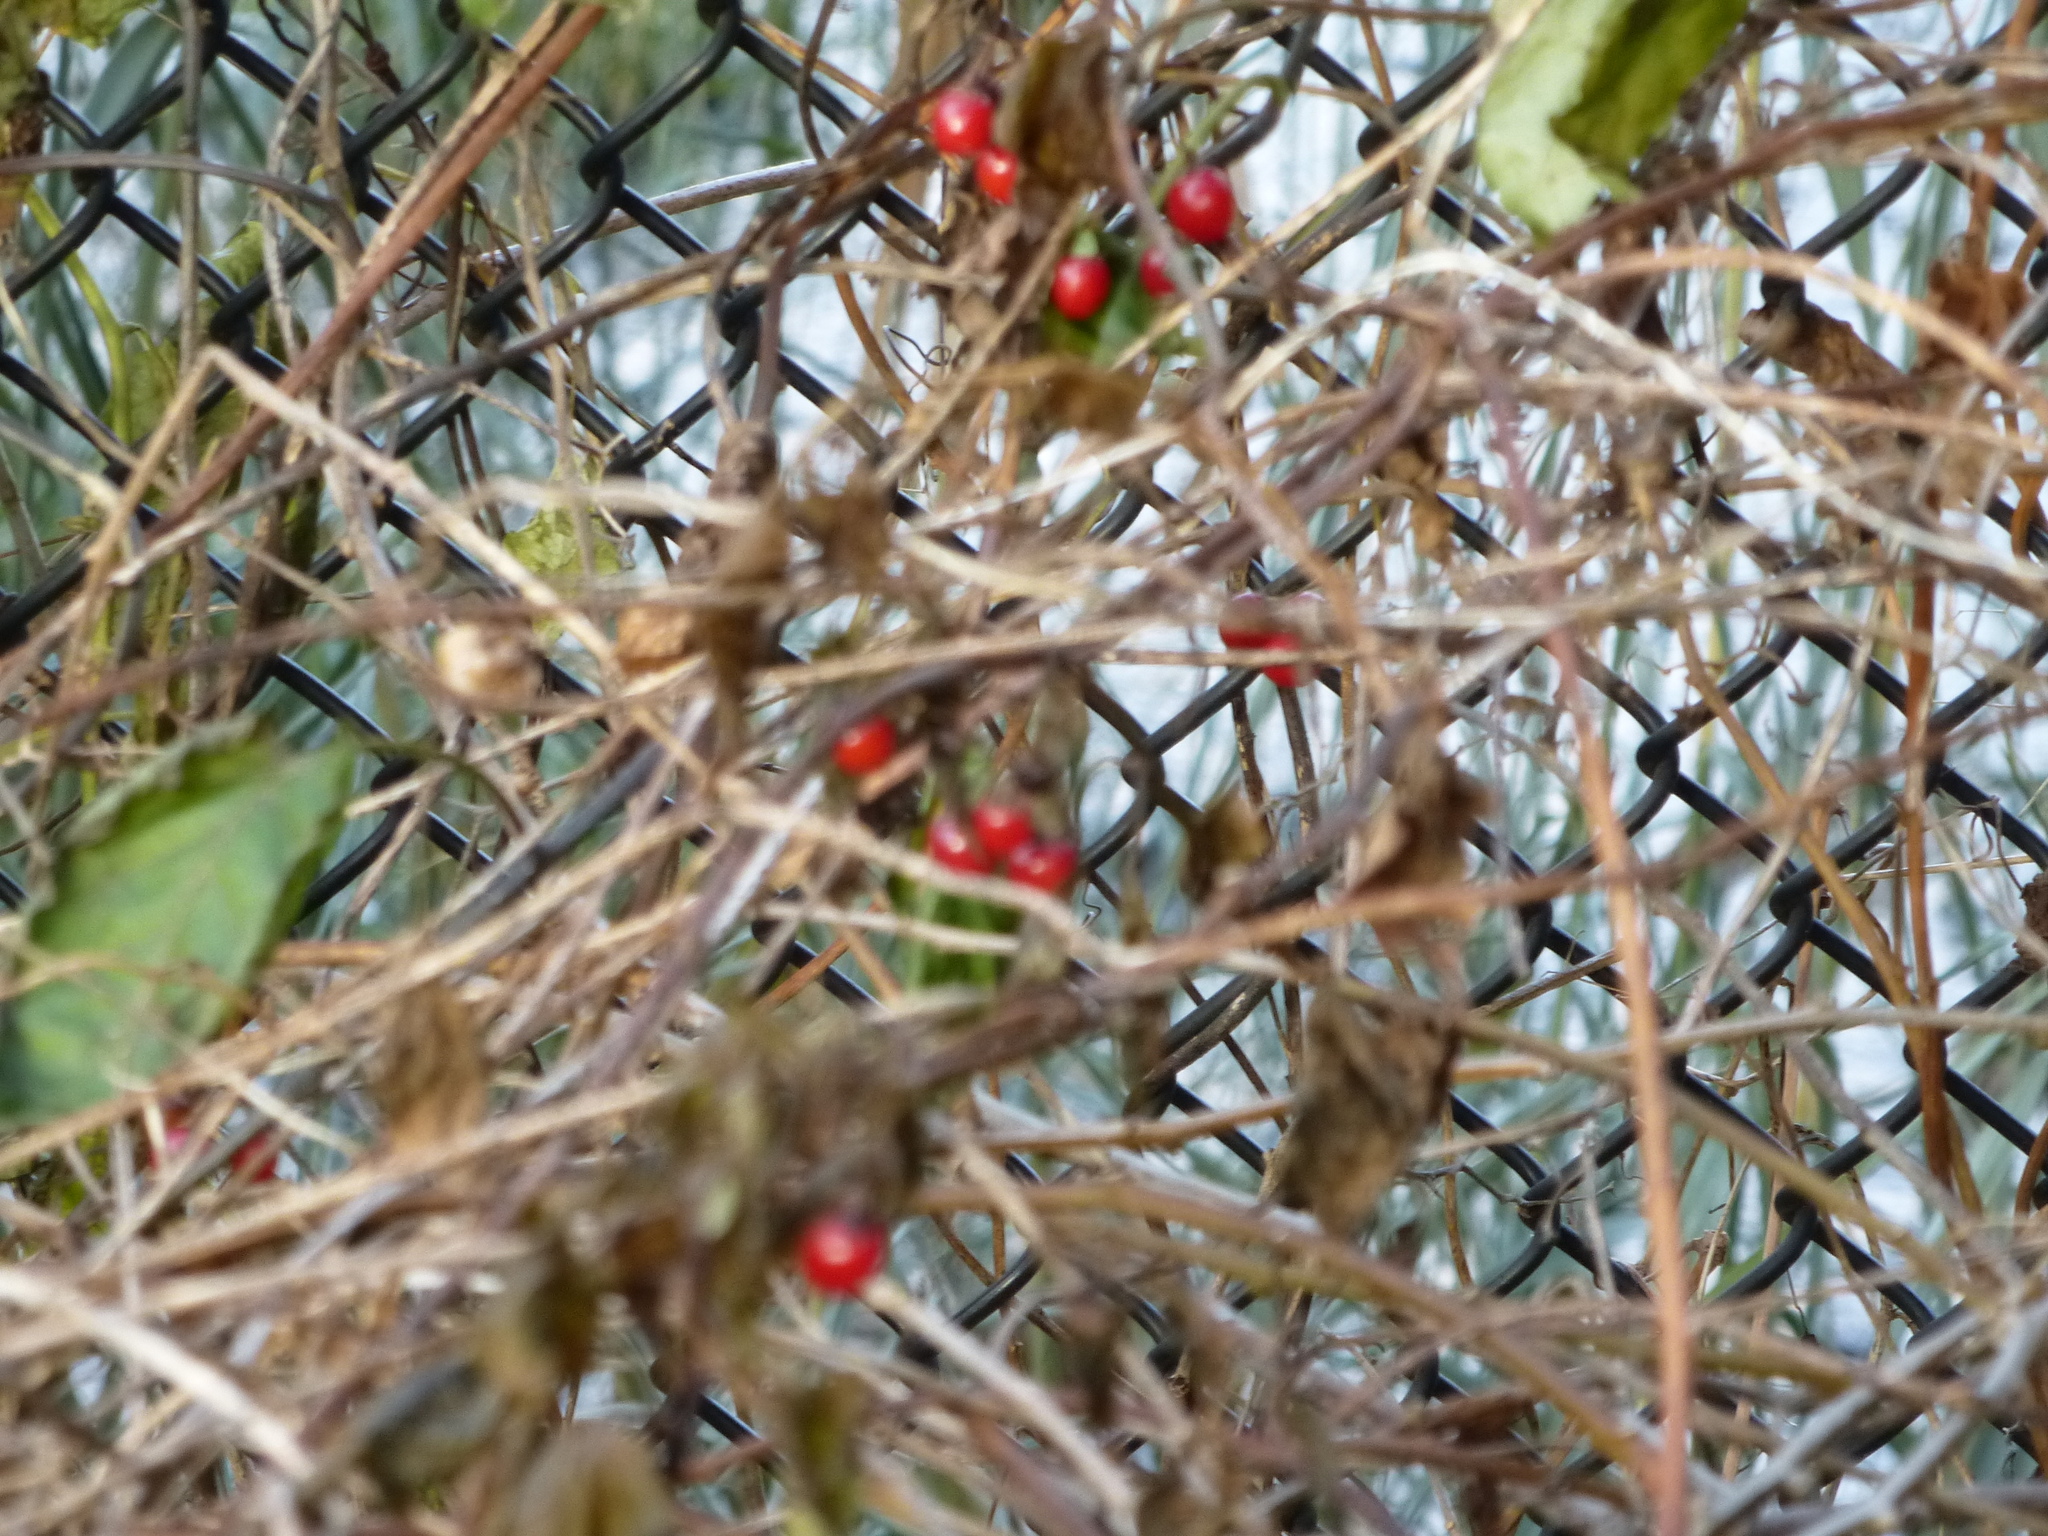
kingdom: Plantae
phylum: Tracheophyta
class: Magnoliopsida
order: Solanales
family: Solanaceae
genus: Solanum
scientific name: Solanum dulcamara
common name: Climbing nightshade
